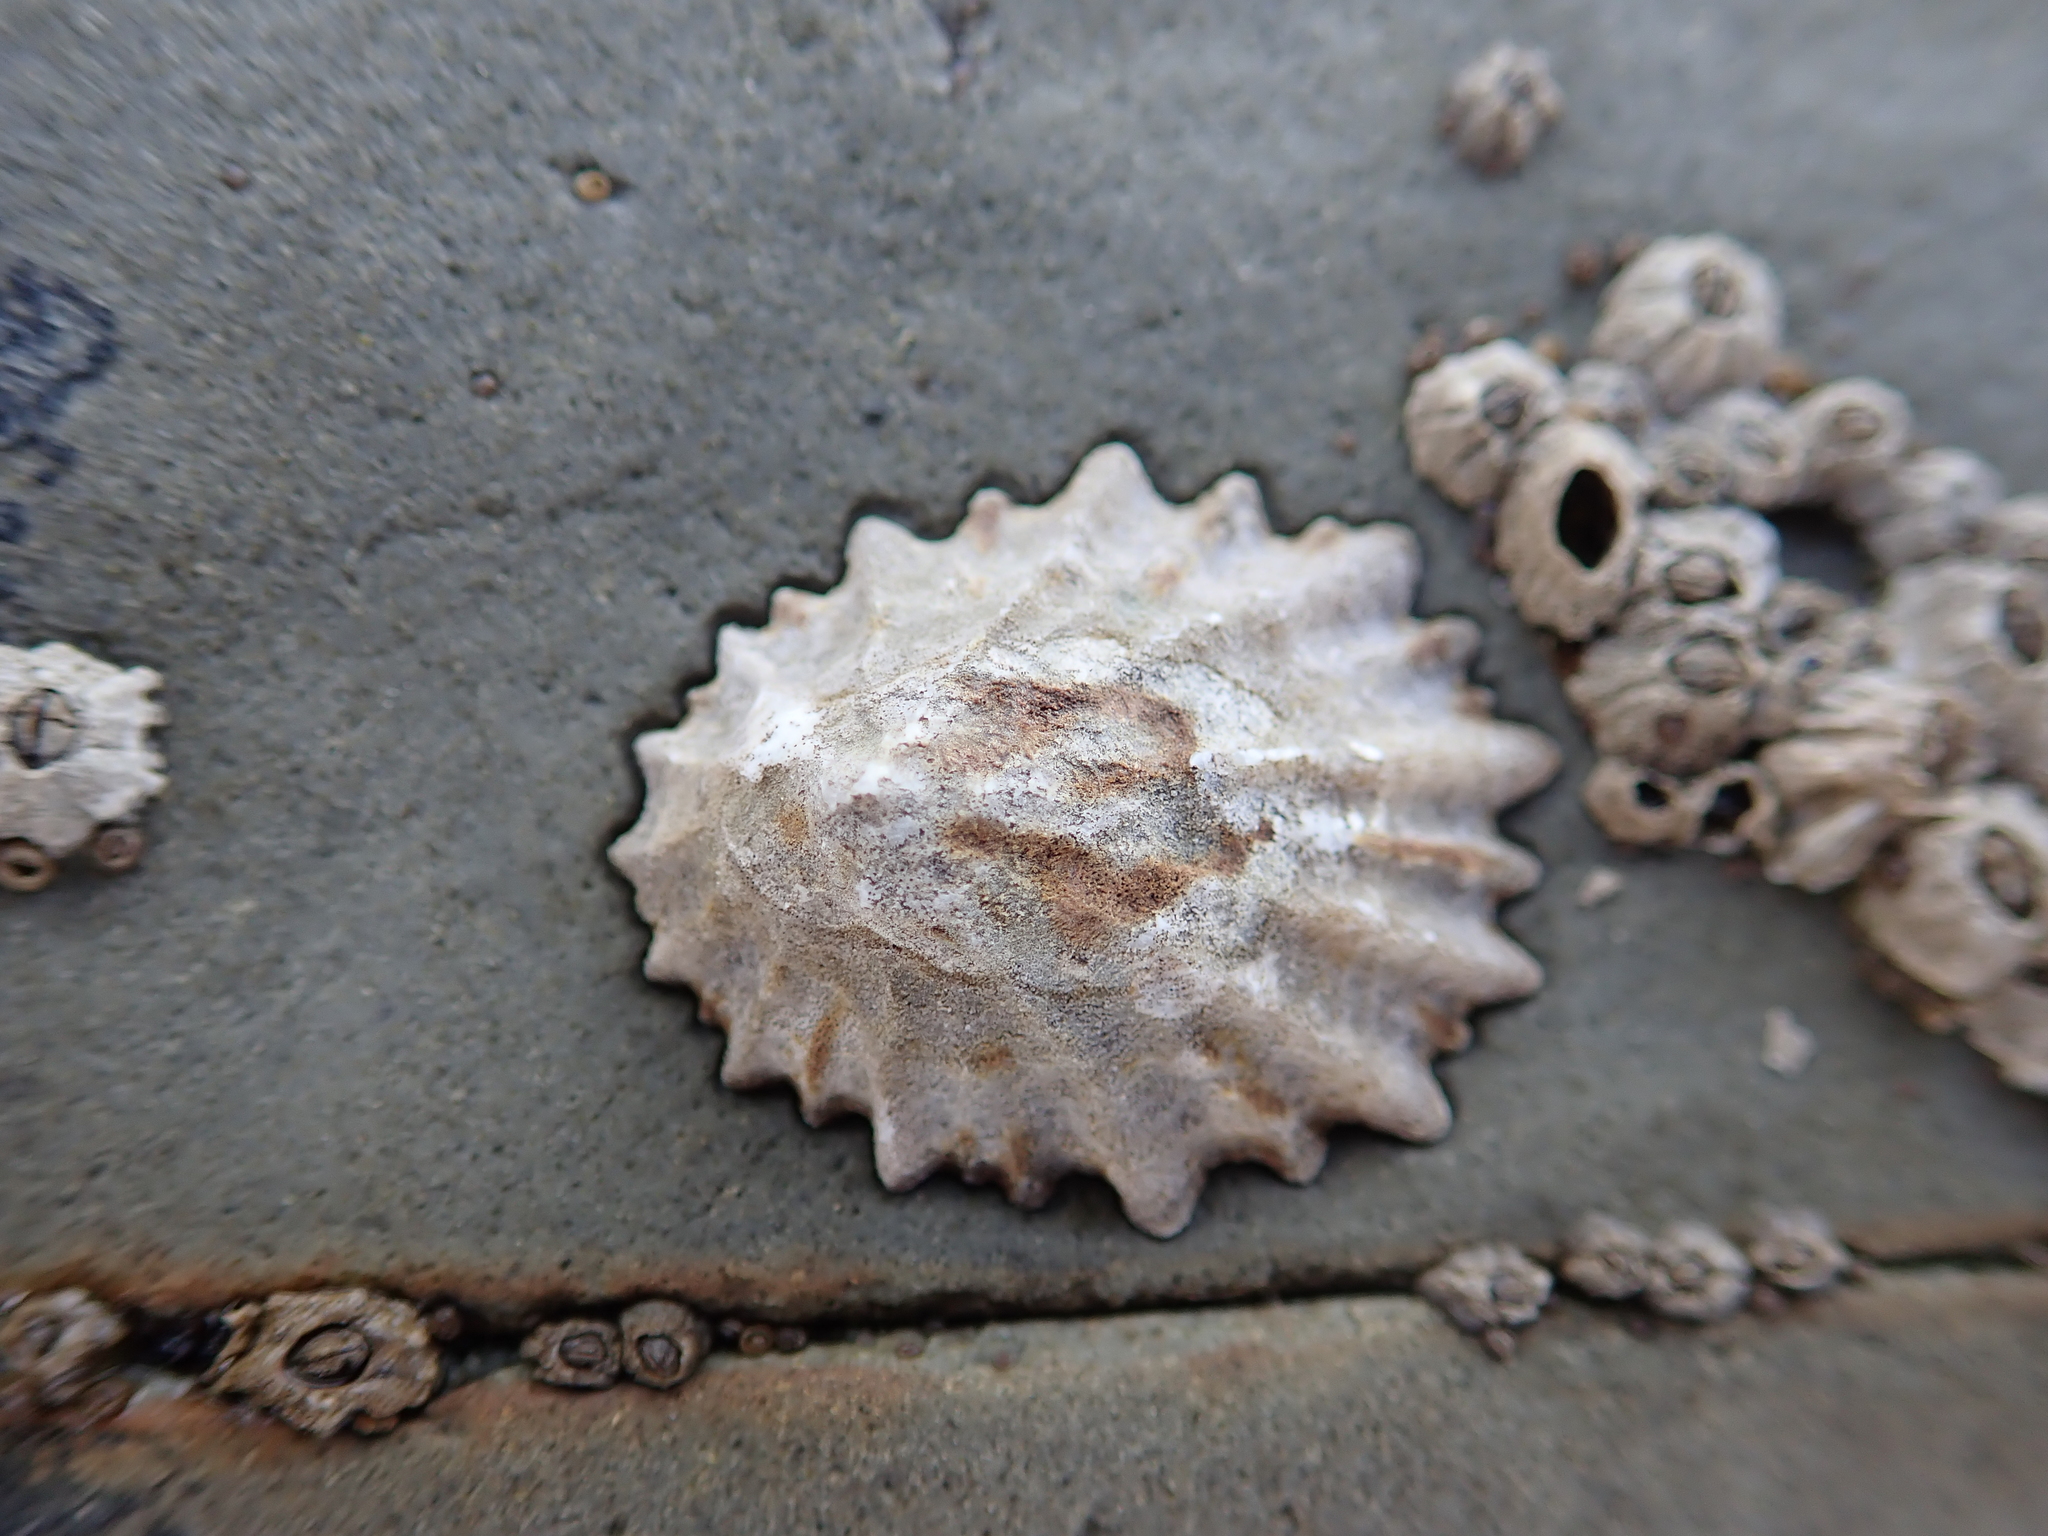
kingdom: Animalia
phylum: Mollusca
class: Gastropoda
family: Lottiidae
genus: Lottia
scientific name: Lottia scabra
